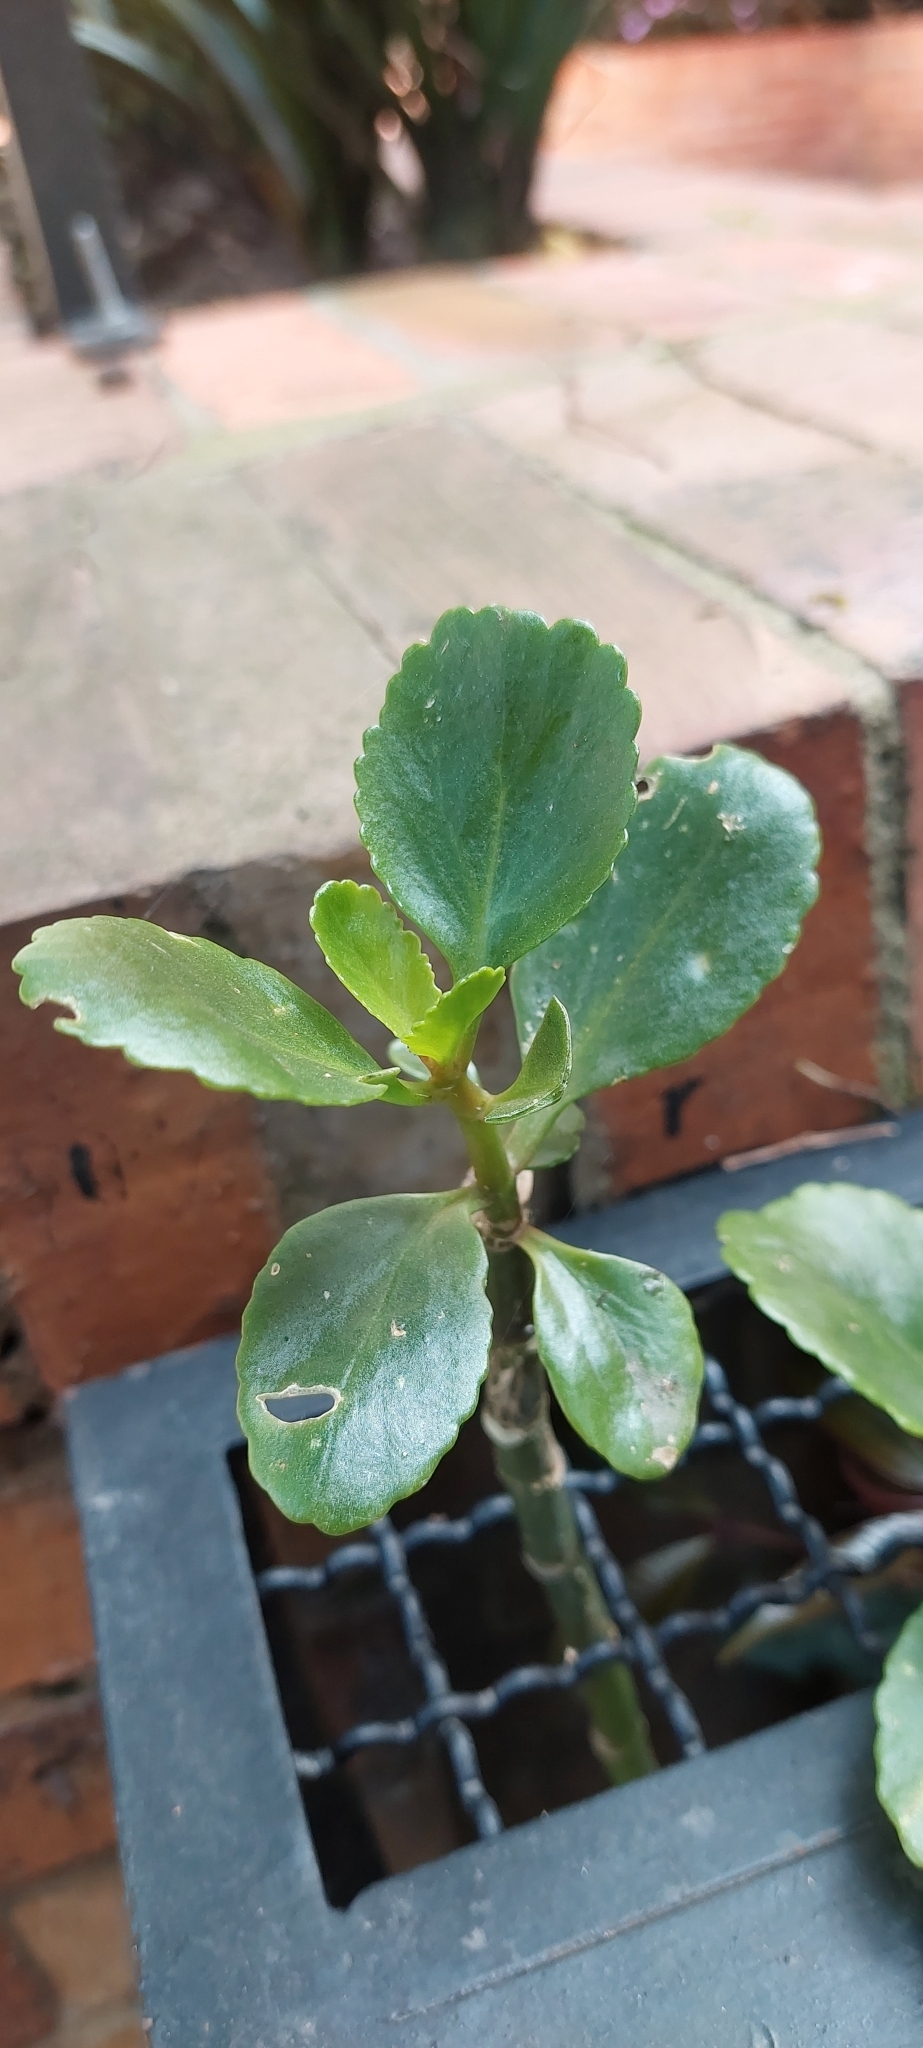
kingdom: Plantae
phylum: Tracheophyta
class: Magnoliopsida
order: Saxifragales
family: Crassulaceae
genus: Kalanchoe
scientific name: Kalanchoe densiflora
